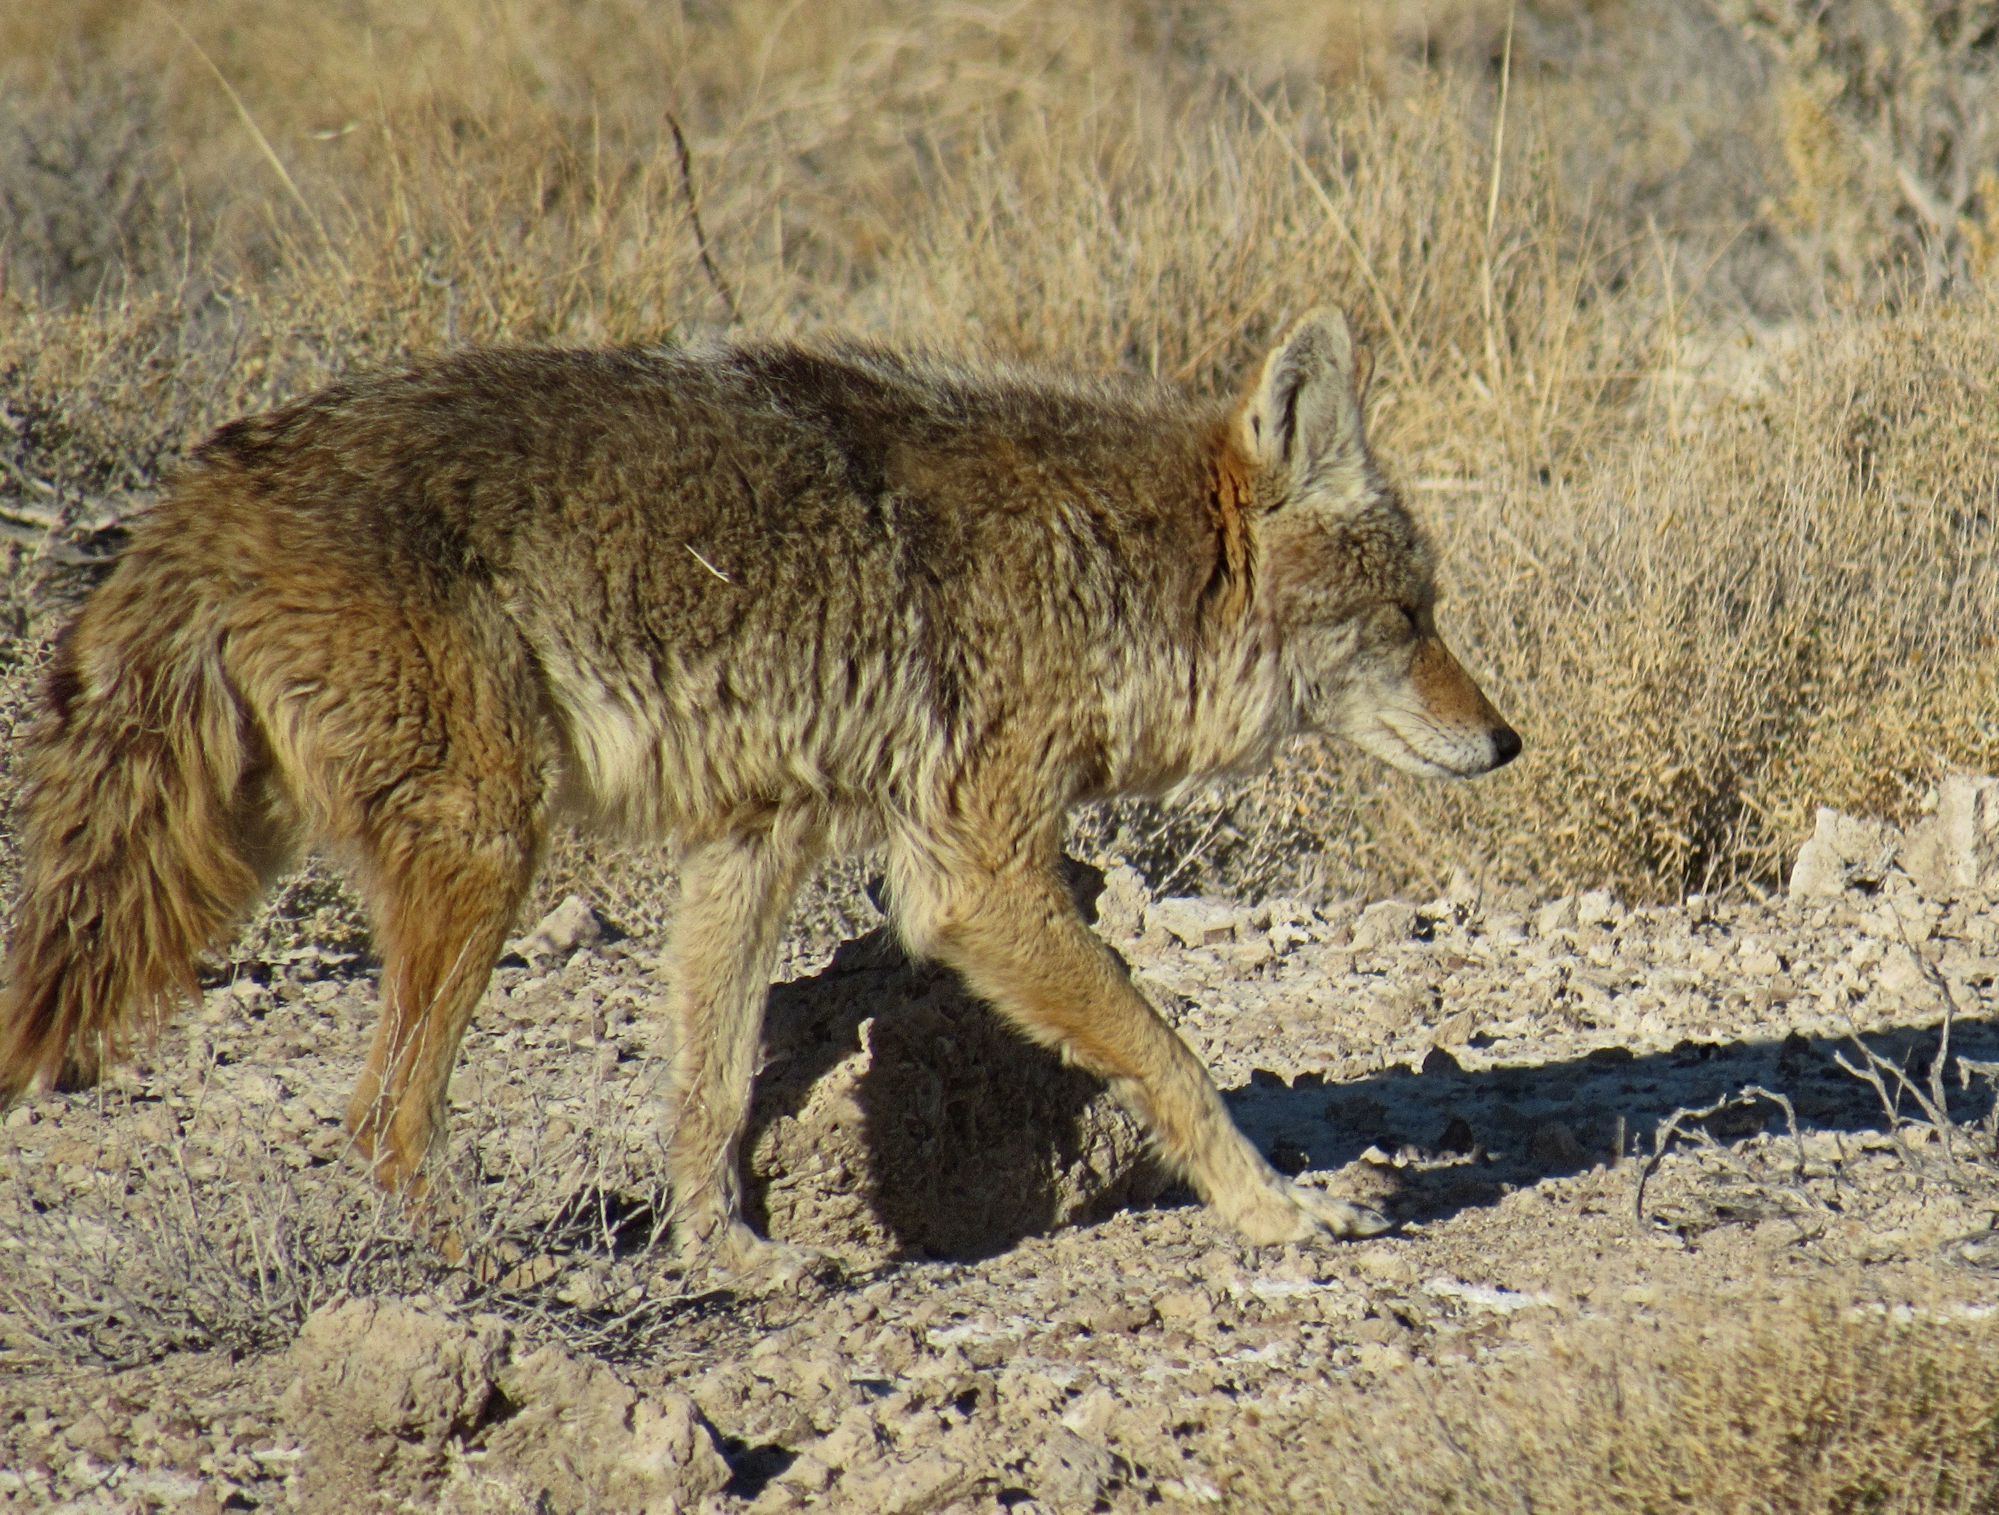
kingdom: Animalia
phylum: Chordata
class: Mammalia
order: Carnivora
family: Canidae
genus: Canis
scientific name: Canis latrans
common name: Coyote
